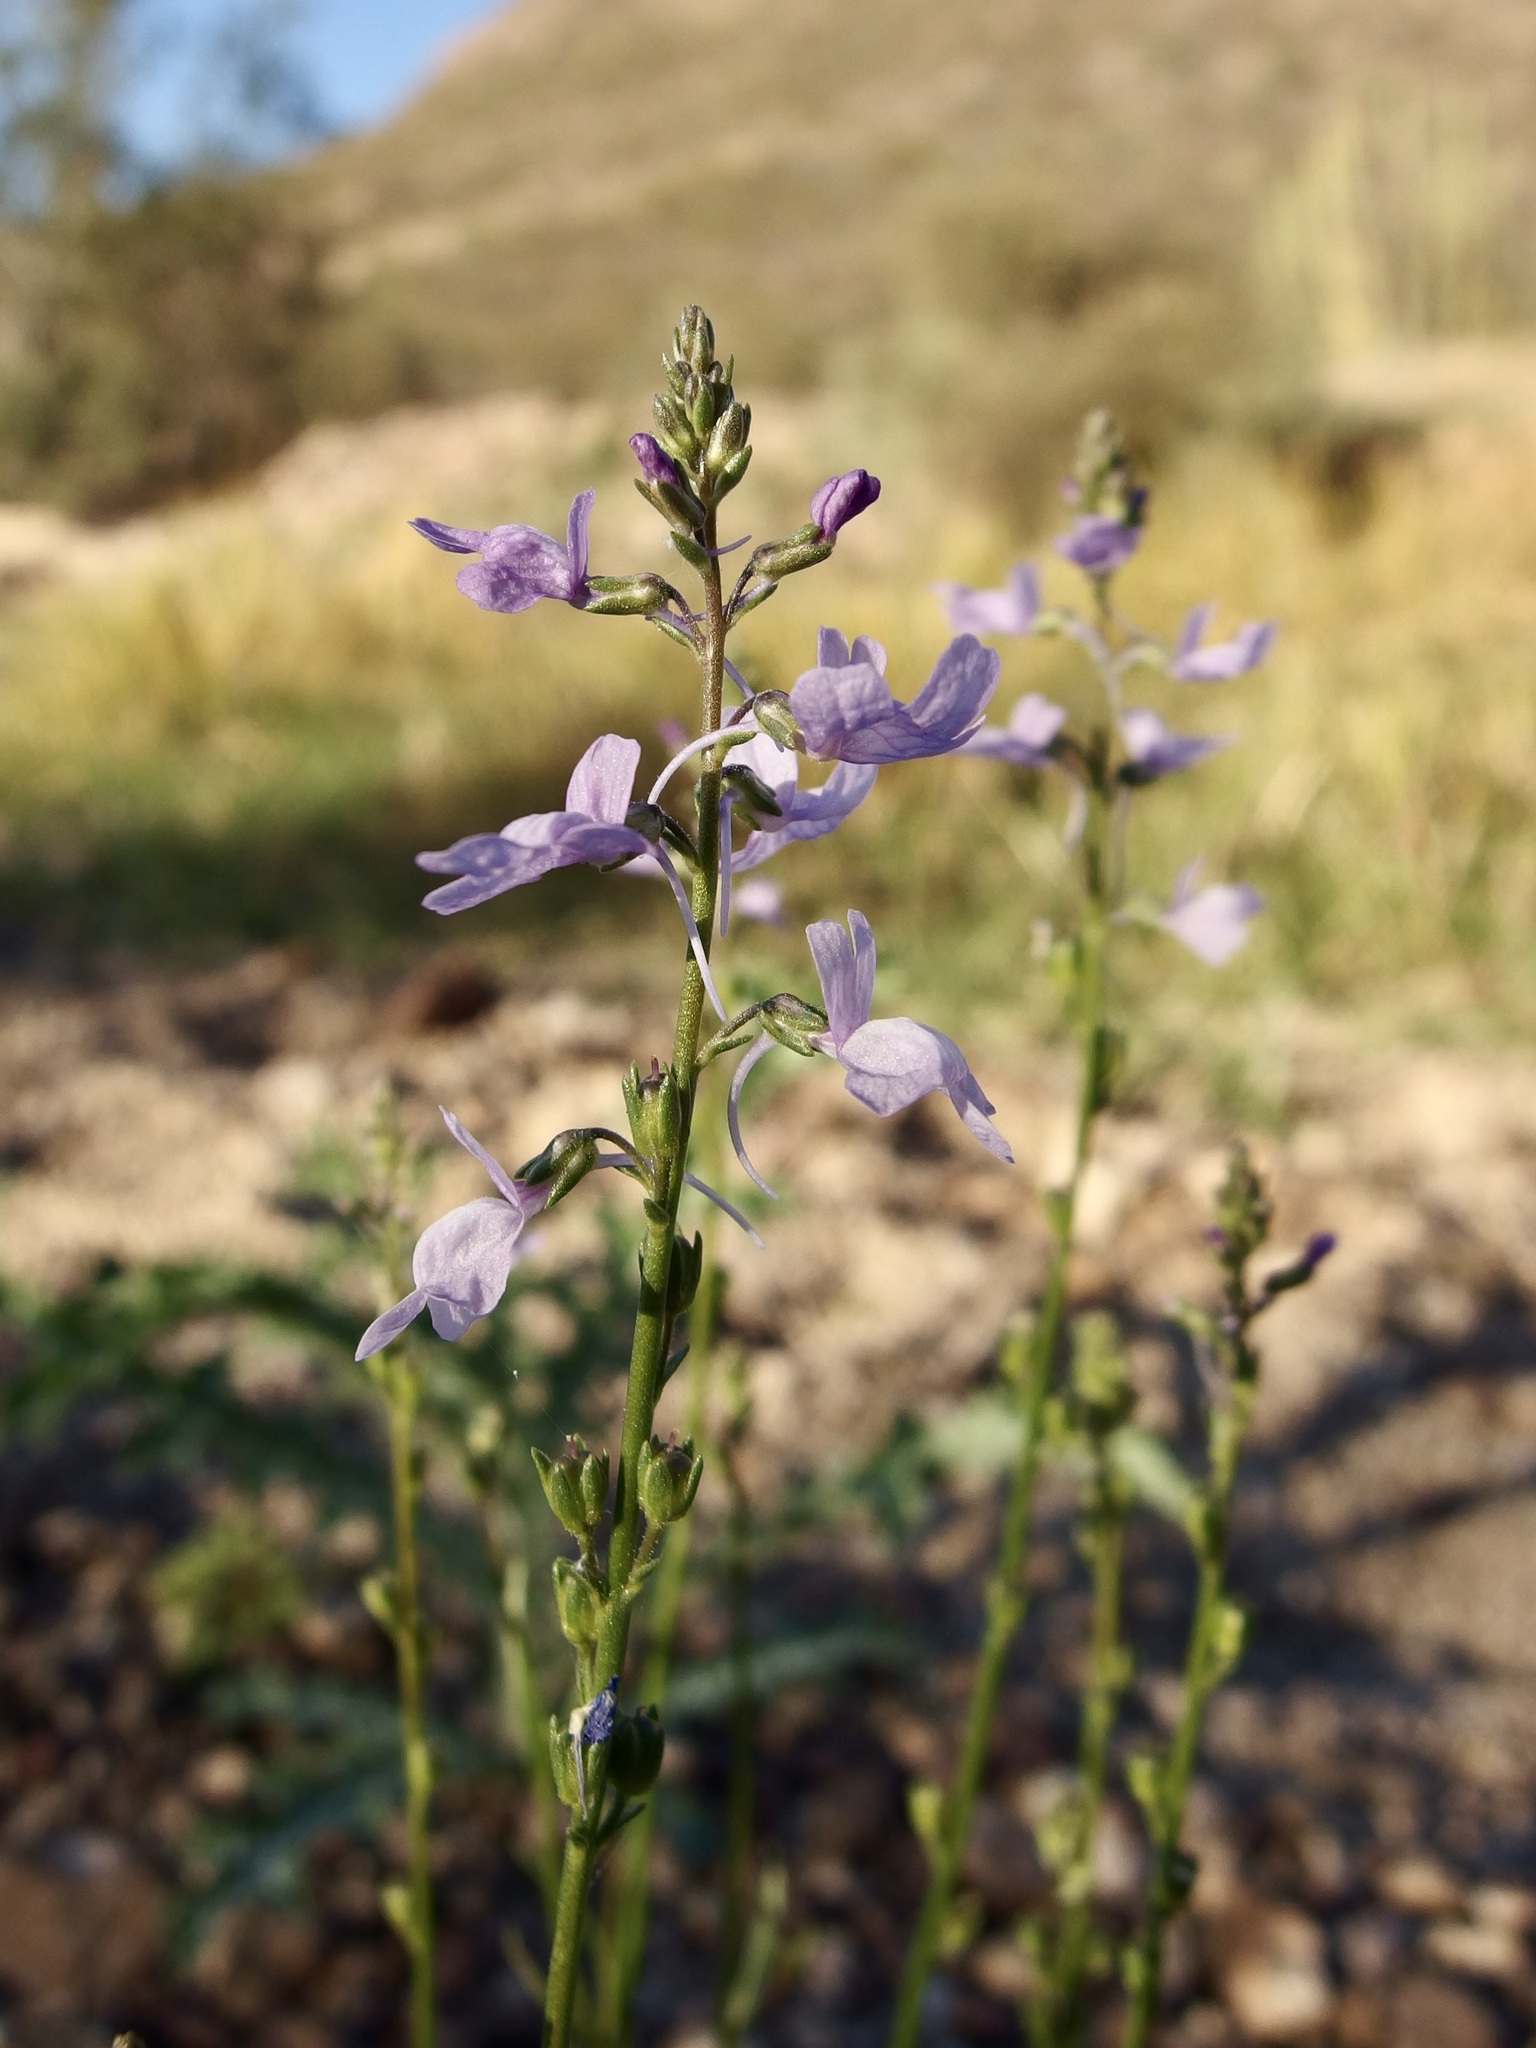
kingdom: Plantae
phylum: Tracheophyta
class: Magnoliopsida
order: Lamiales
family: Plantaginaceae
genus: Nuttallanthus
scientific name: Nuttallanthus texanus
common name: Texas toadflax
